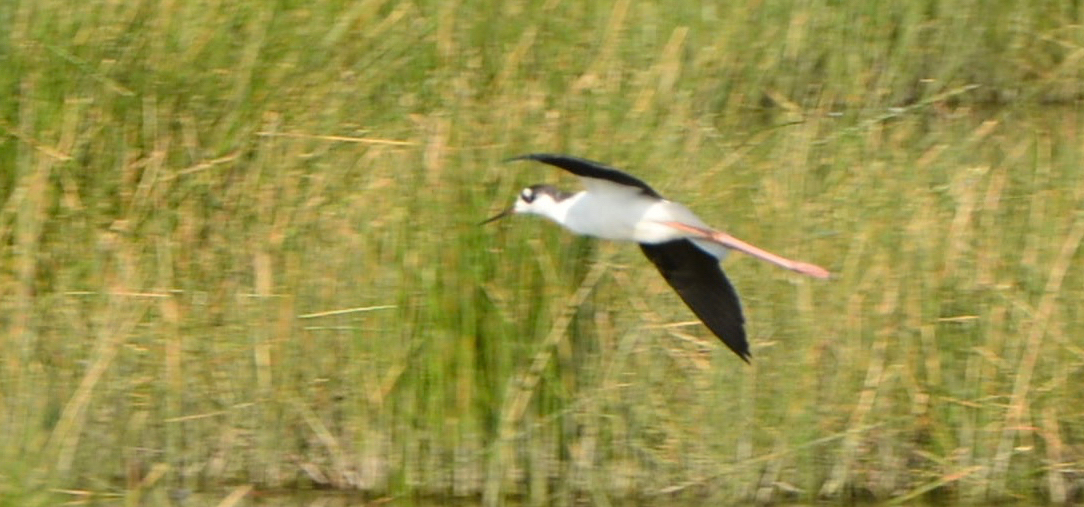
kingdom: Animalia
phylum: Chordata
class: Aves
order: Charadriiformes
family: Recurvirostridae
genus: Himantopus
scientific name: Himantopus mexicanus
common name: Black-necked stilt
